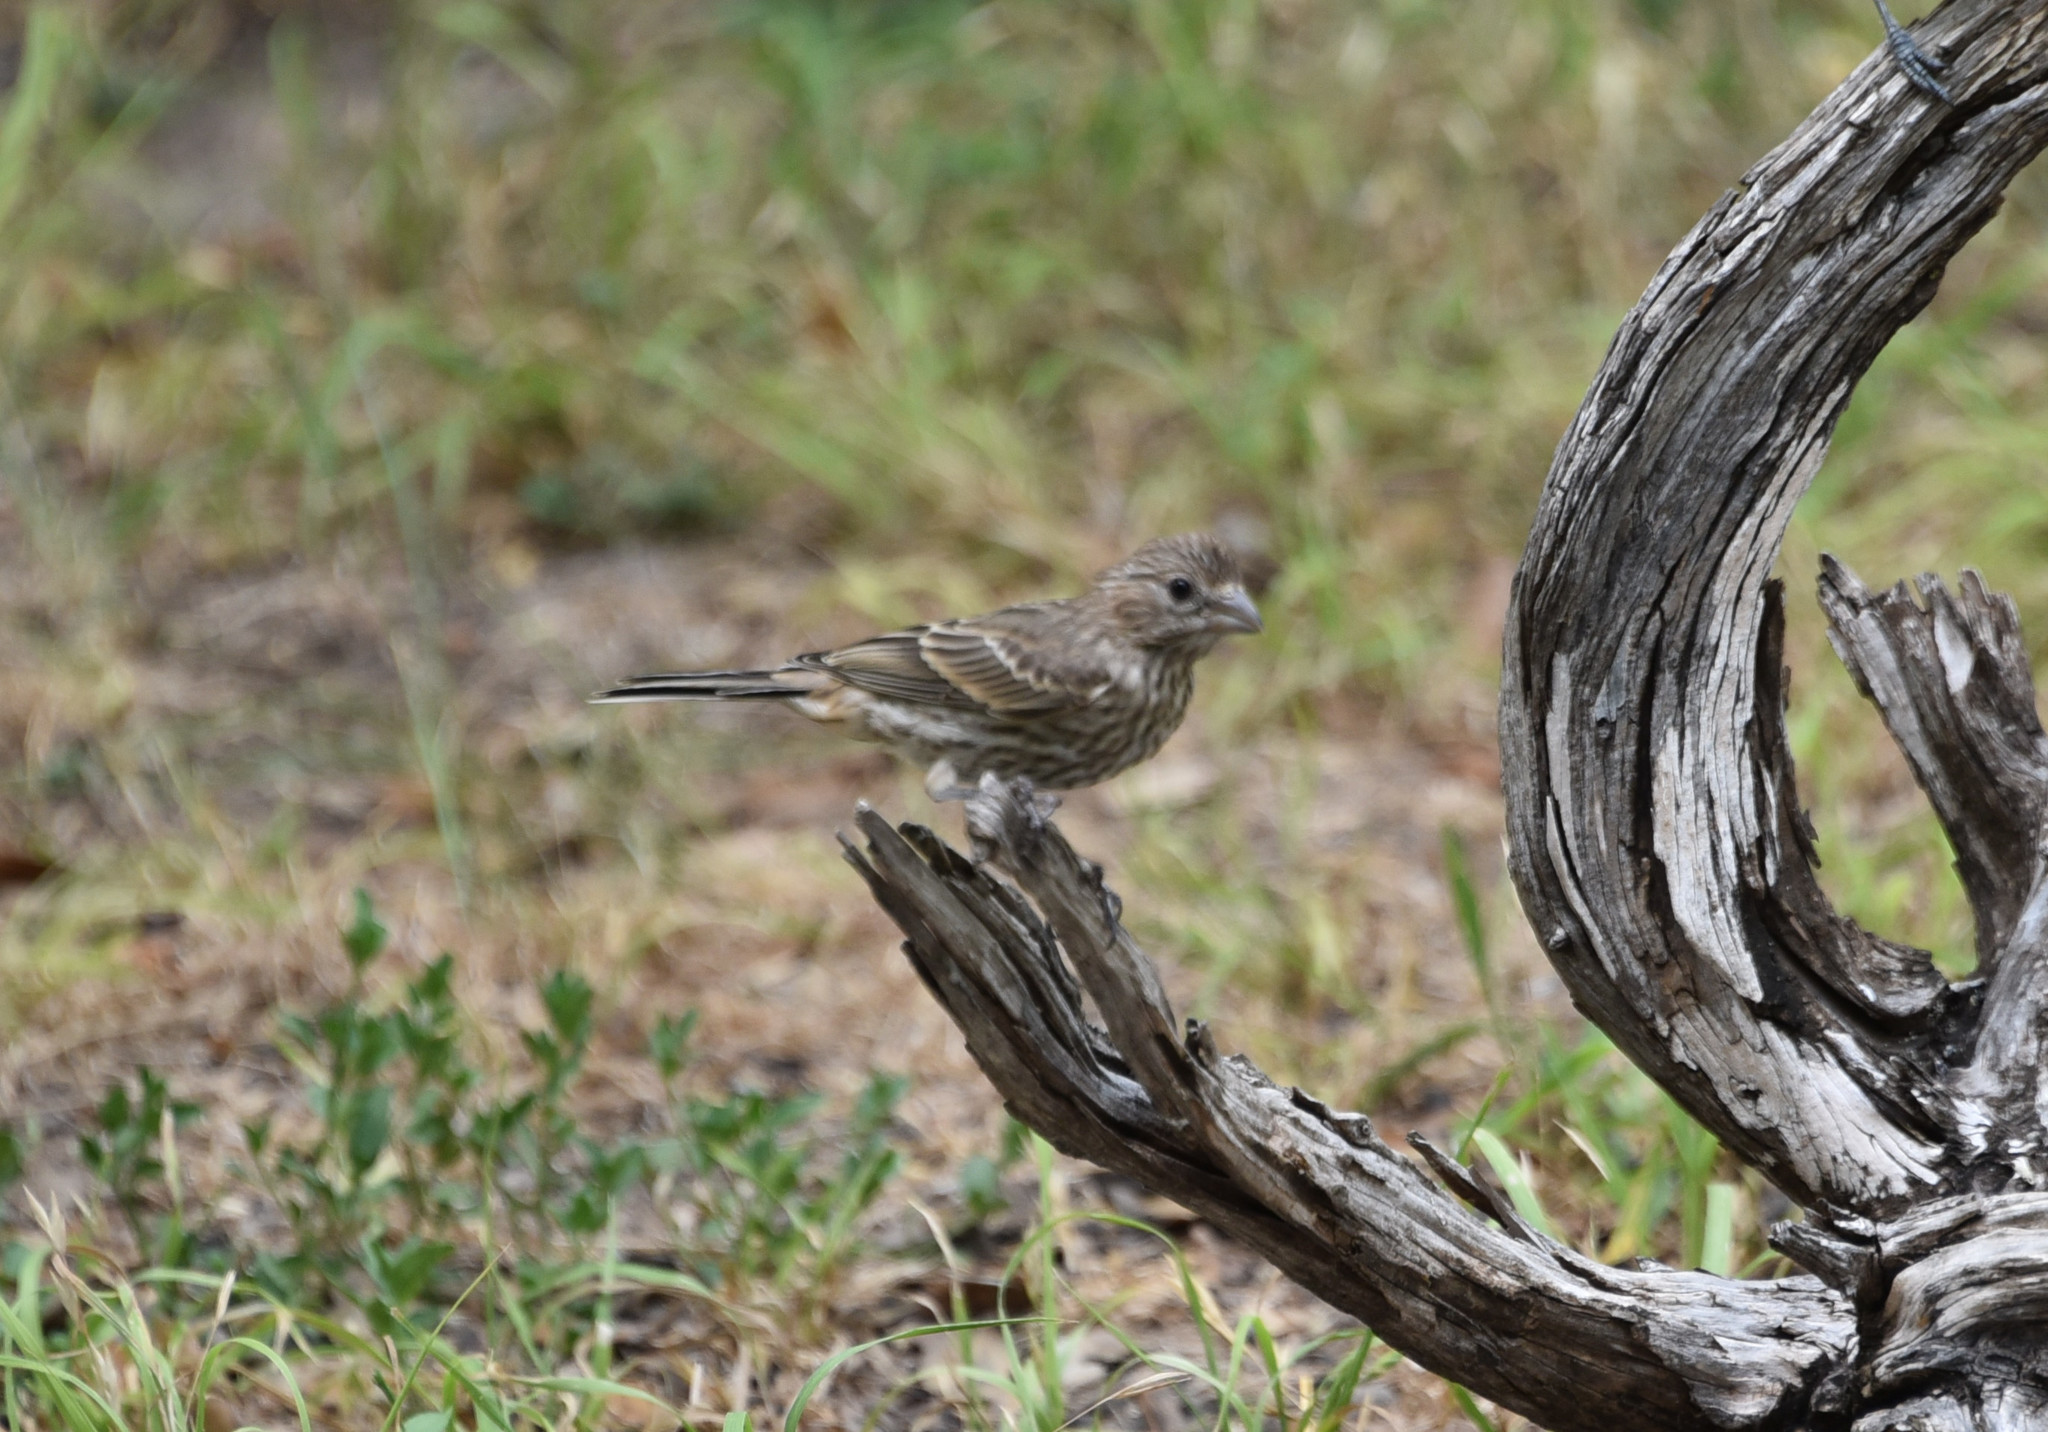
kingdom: Animalia
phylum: Chordata
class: Aves
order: Passeriformes
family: Fringillidae
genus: Haemorhous
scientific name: Haemorhous mexicanus
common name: House finch
